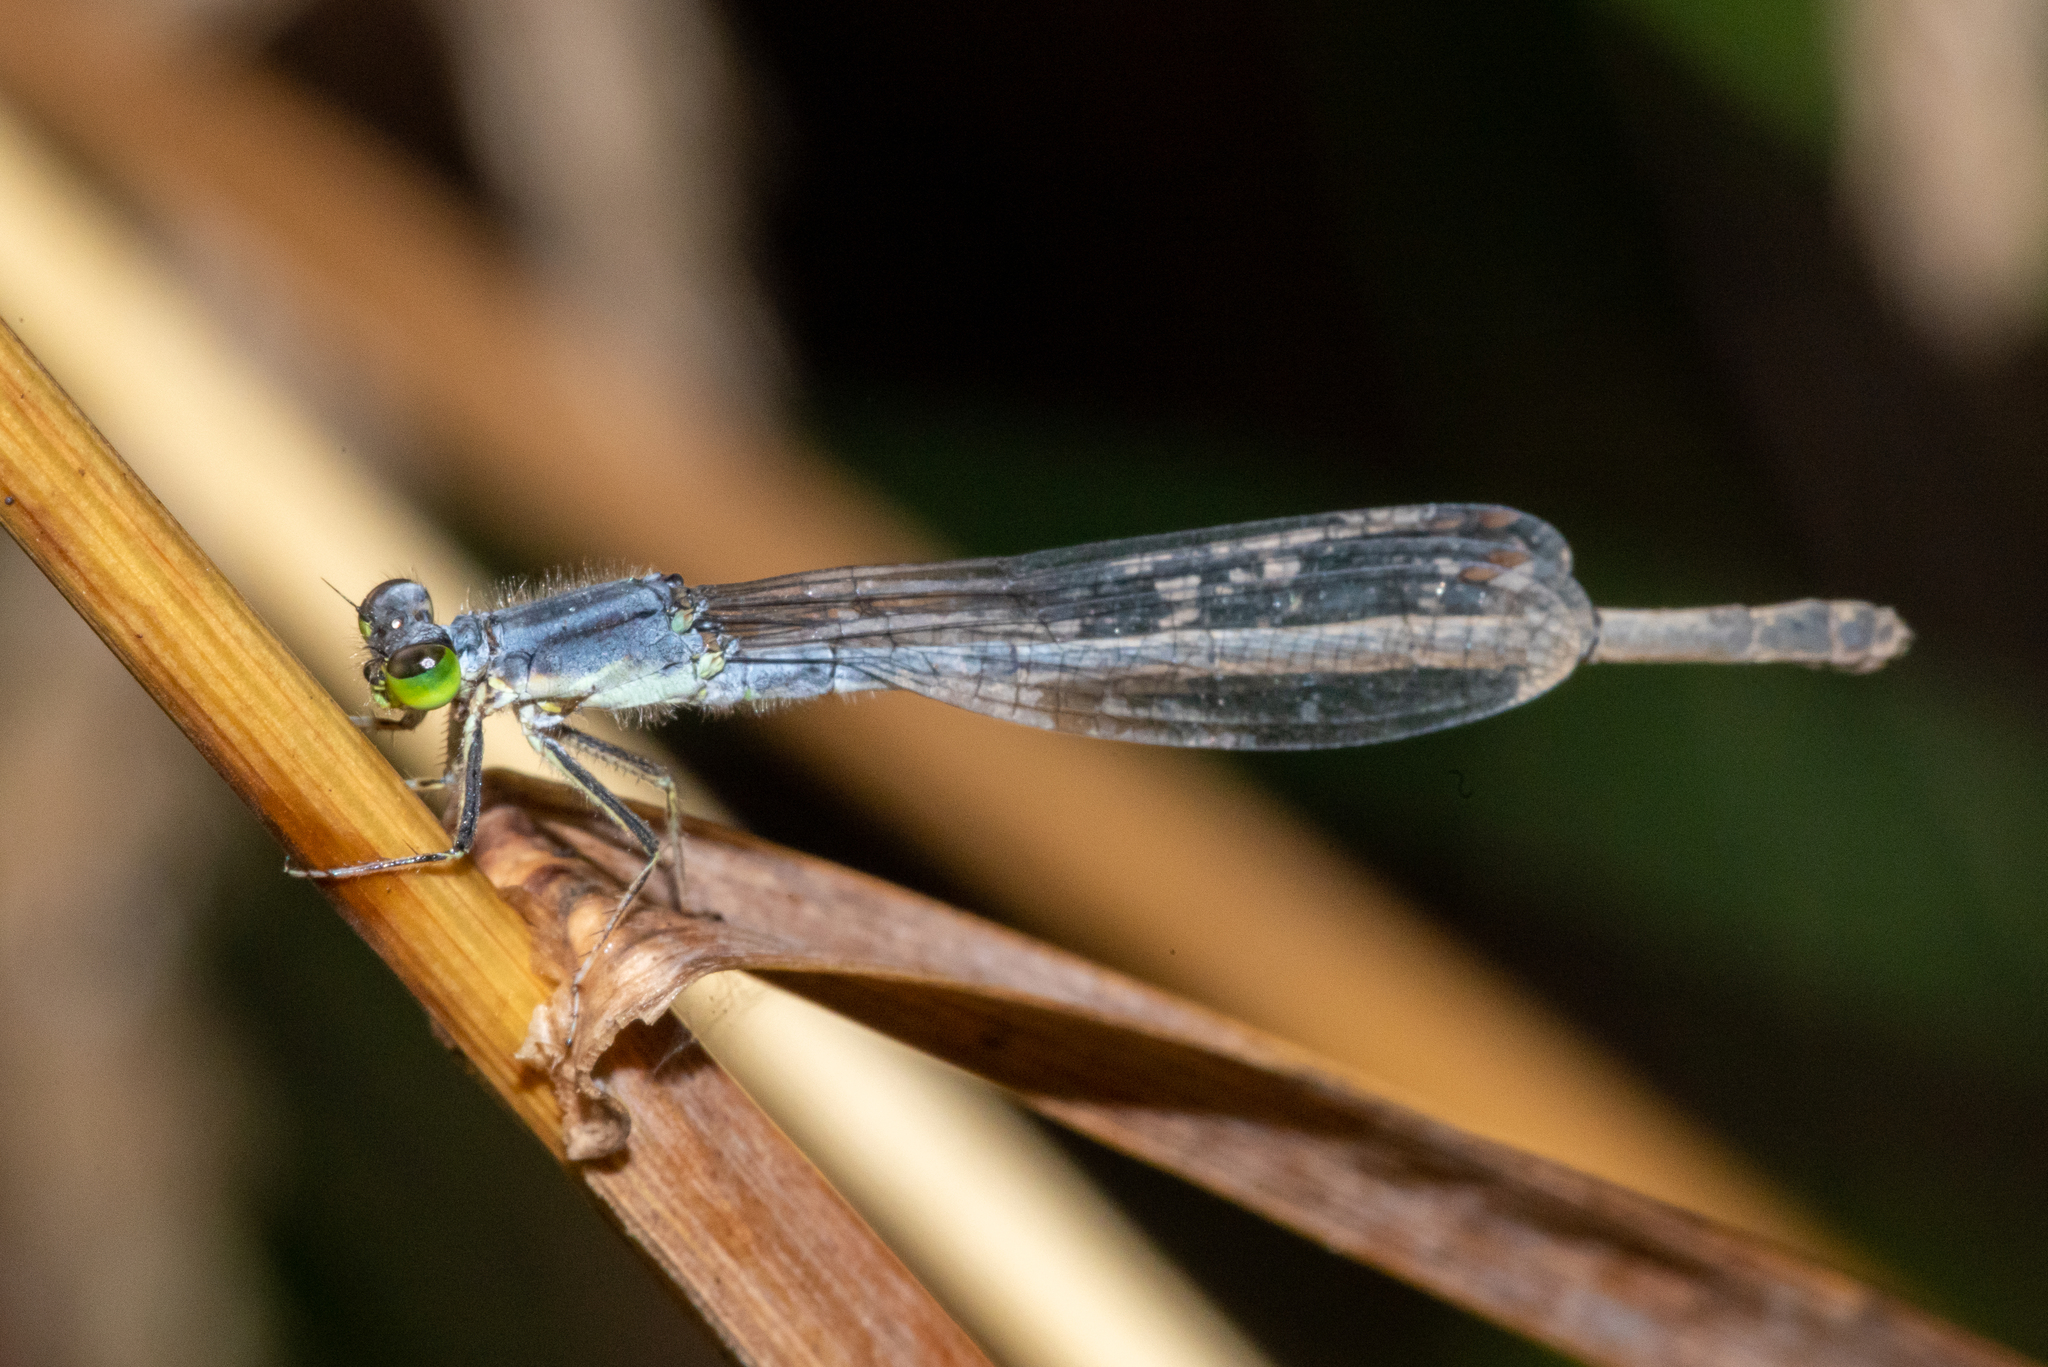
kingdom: Animalia
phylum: Arthropoda
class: Insecta
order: Odonata
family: Coenagrionidae
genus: Ischnura
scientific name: Ischnura verticalis
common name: Eastern forktail
